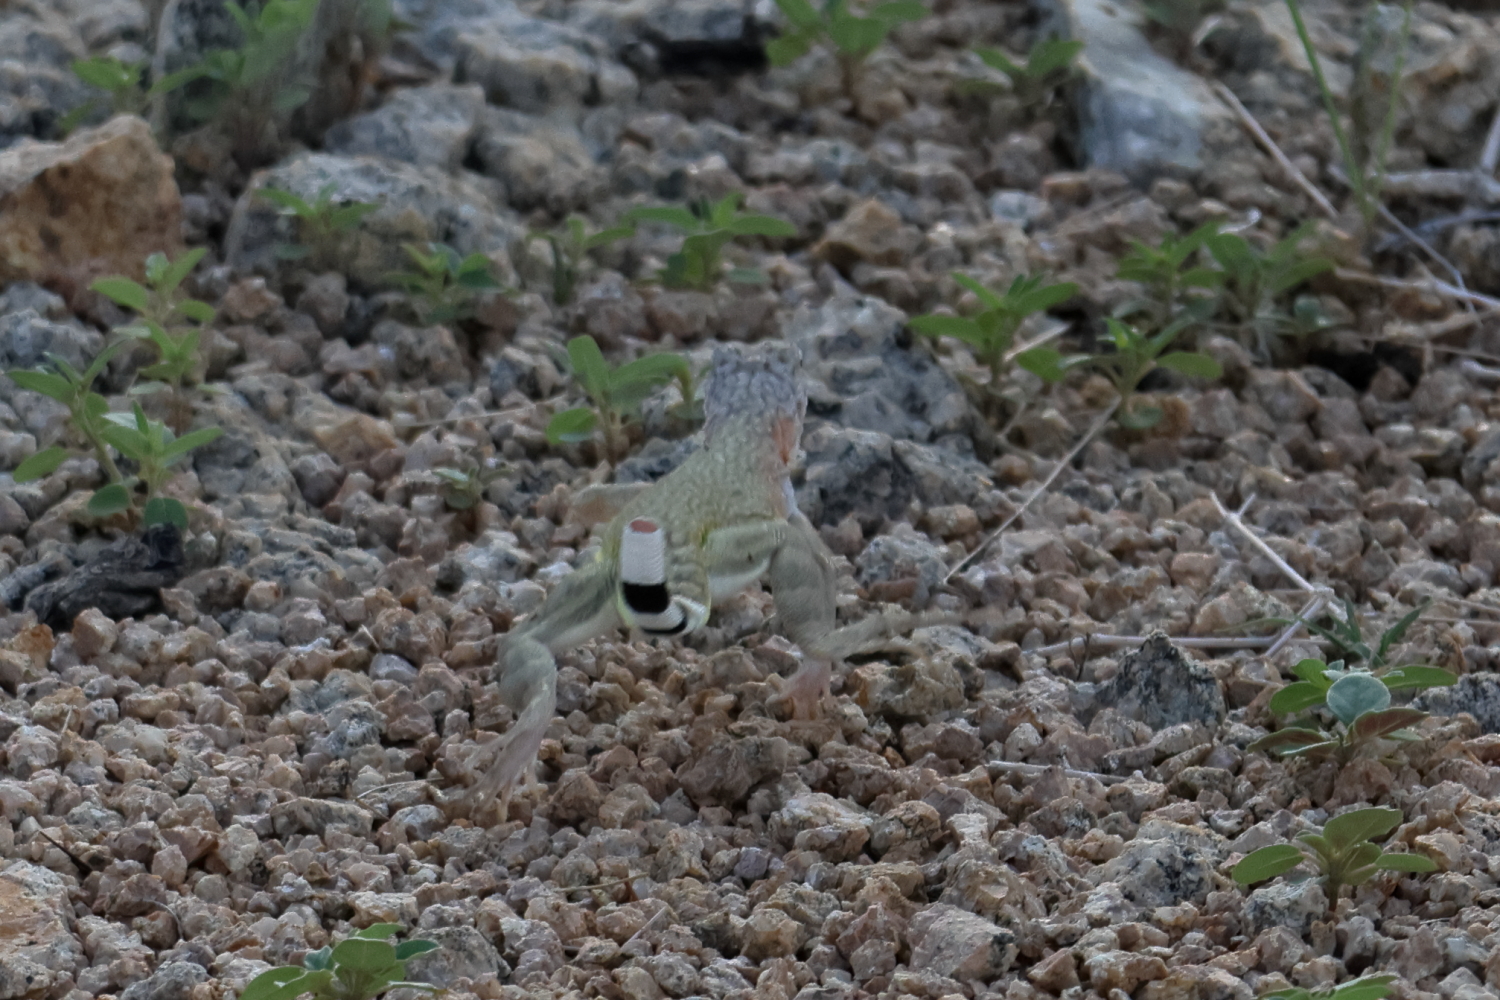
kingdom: Animalia
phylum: Chordata
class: Squamata
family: Phrynosomatidae
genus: Callisaurus
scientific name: Callisaurus draconoides
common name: Zebra-tailed lizard
